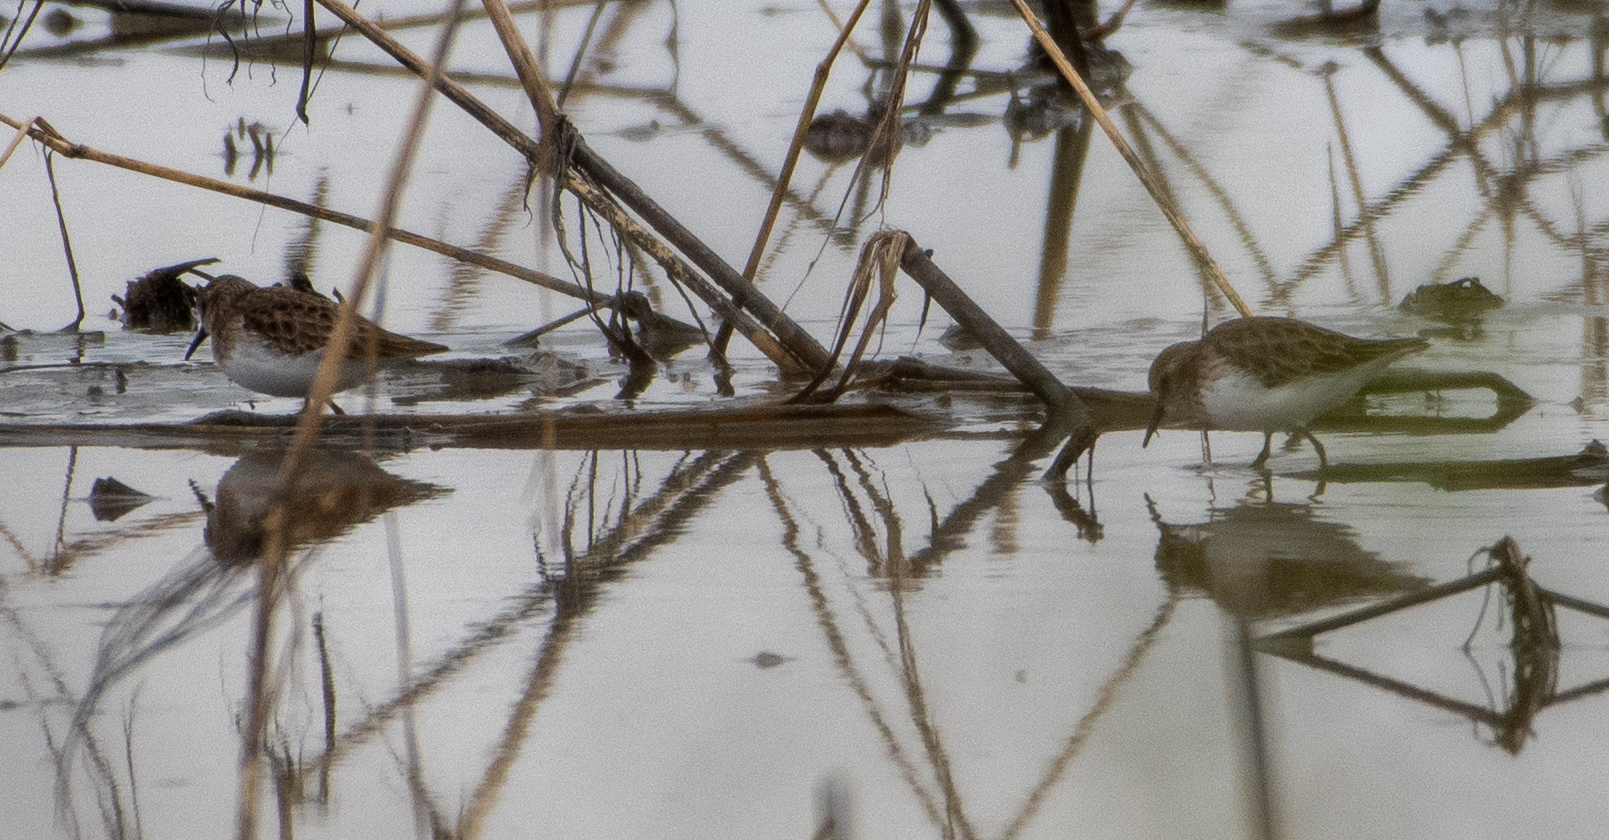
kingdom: Animalia
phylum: Chordata
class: Aves
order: Charadriiformes
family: Scolopacidae
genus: Calidris
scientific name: Calidris minutilla
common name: Least sandpiper
